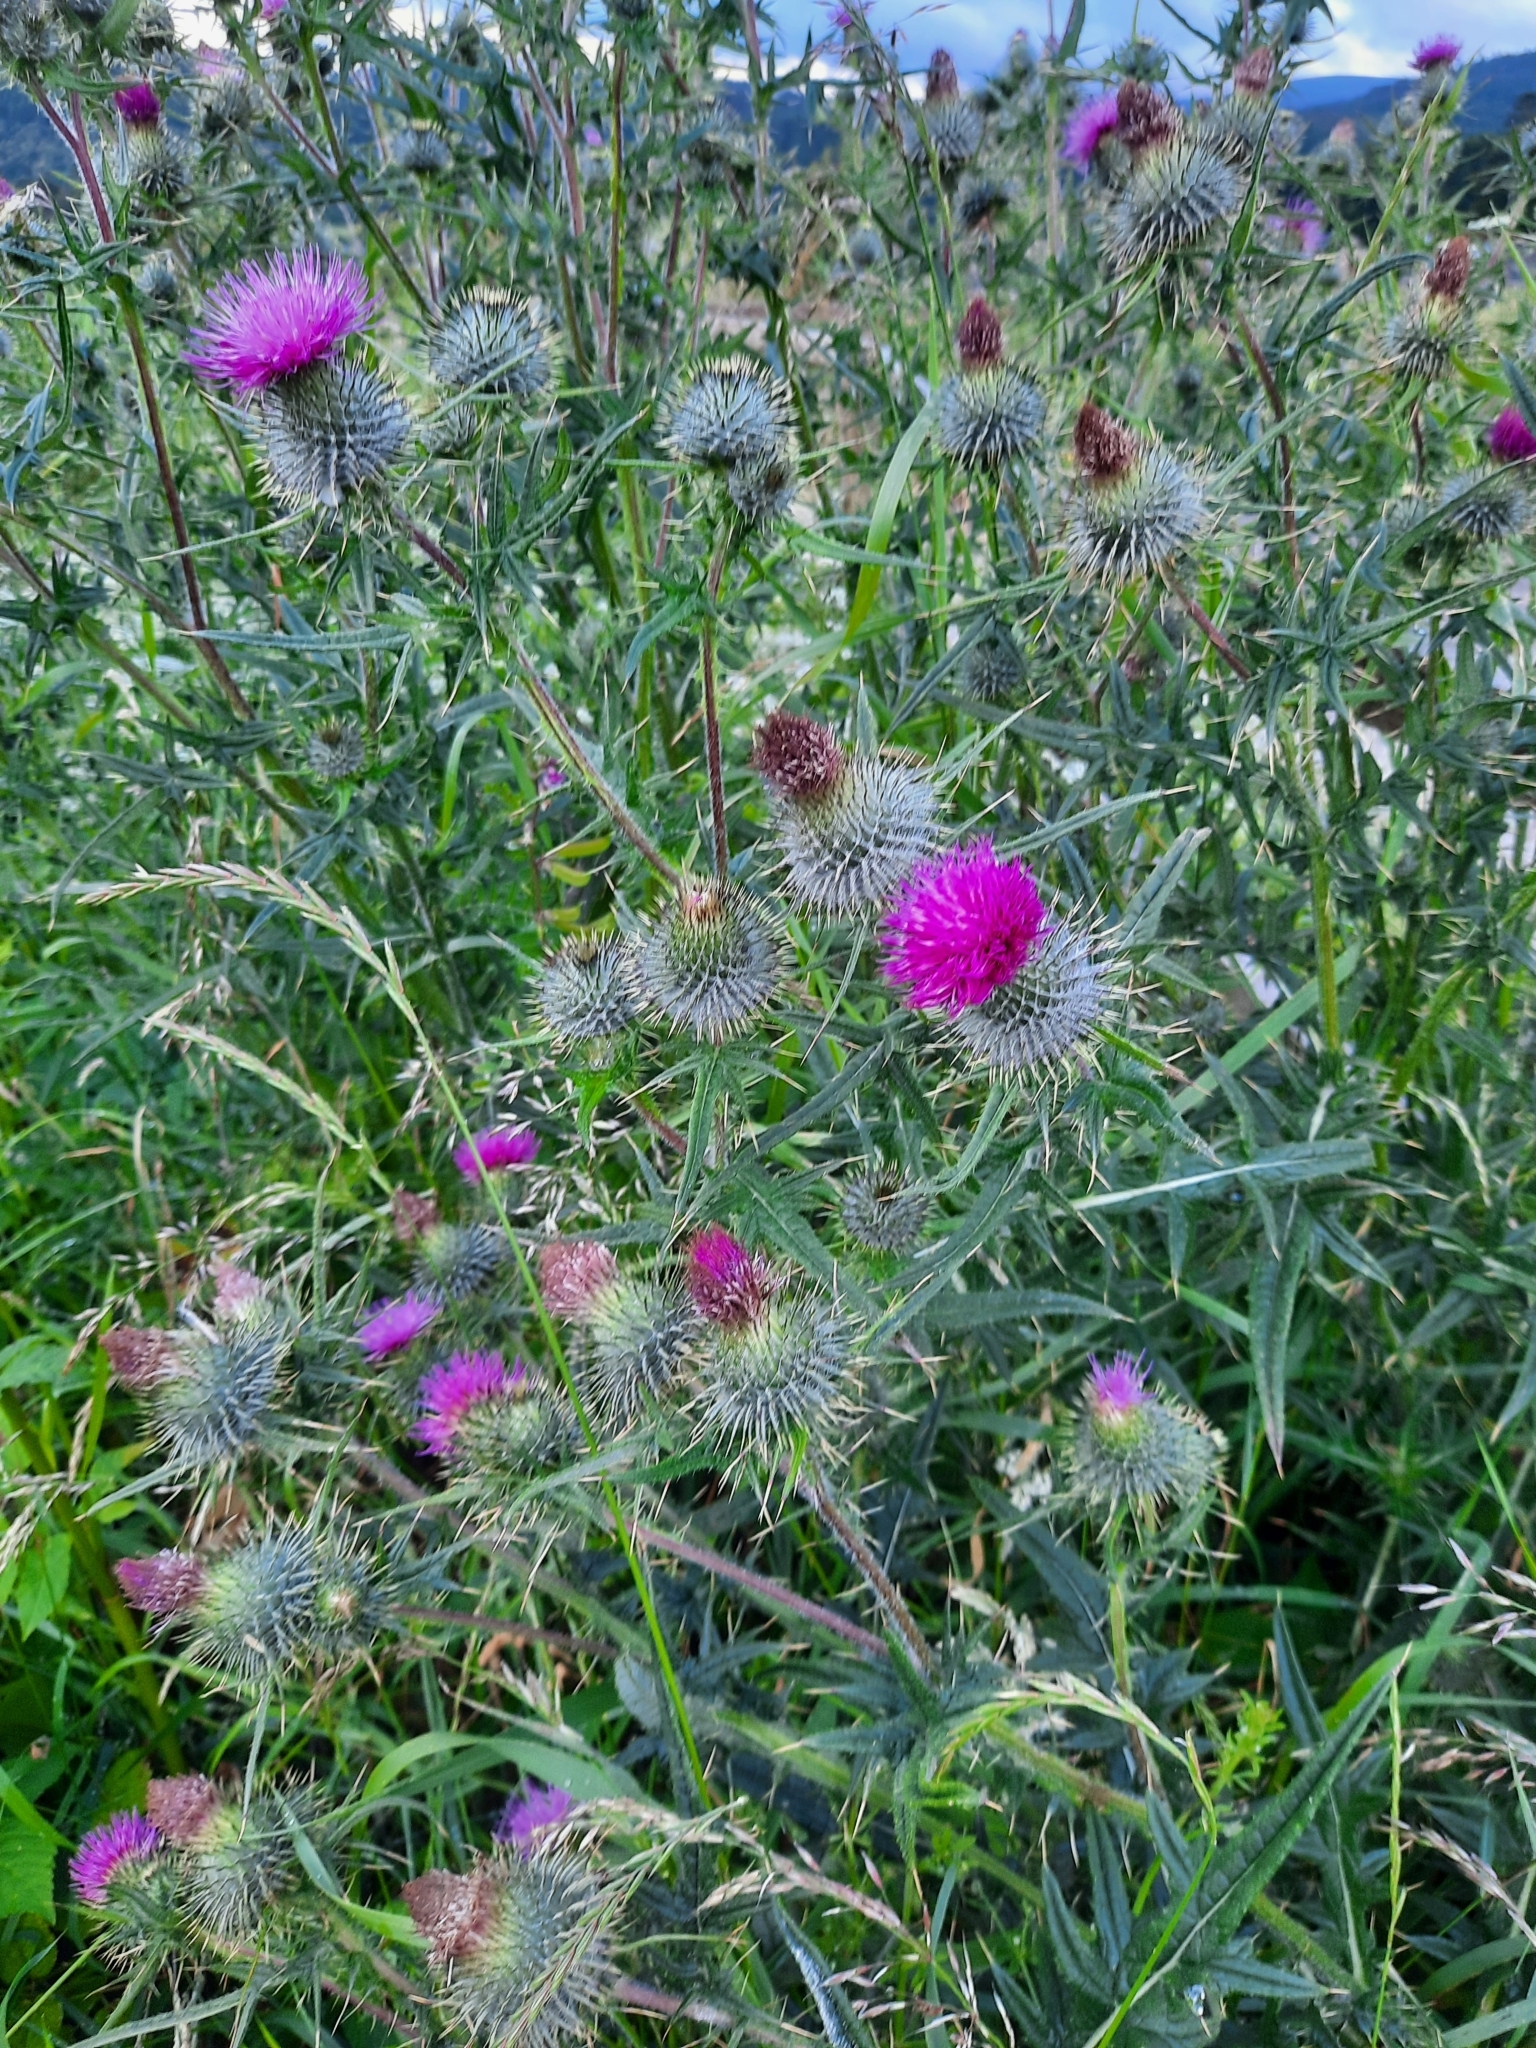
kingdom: Plantae
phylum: Tracheophyta
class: Magnoliopsida
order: Asterales
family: Asteraceae
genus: Cirsium
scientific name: Cirsium vulgare
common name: Bull thistle
